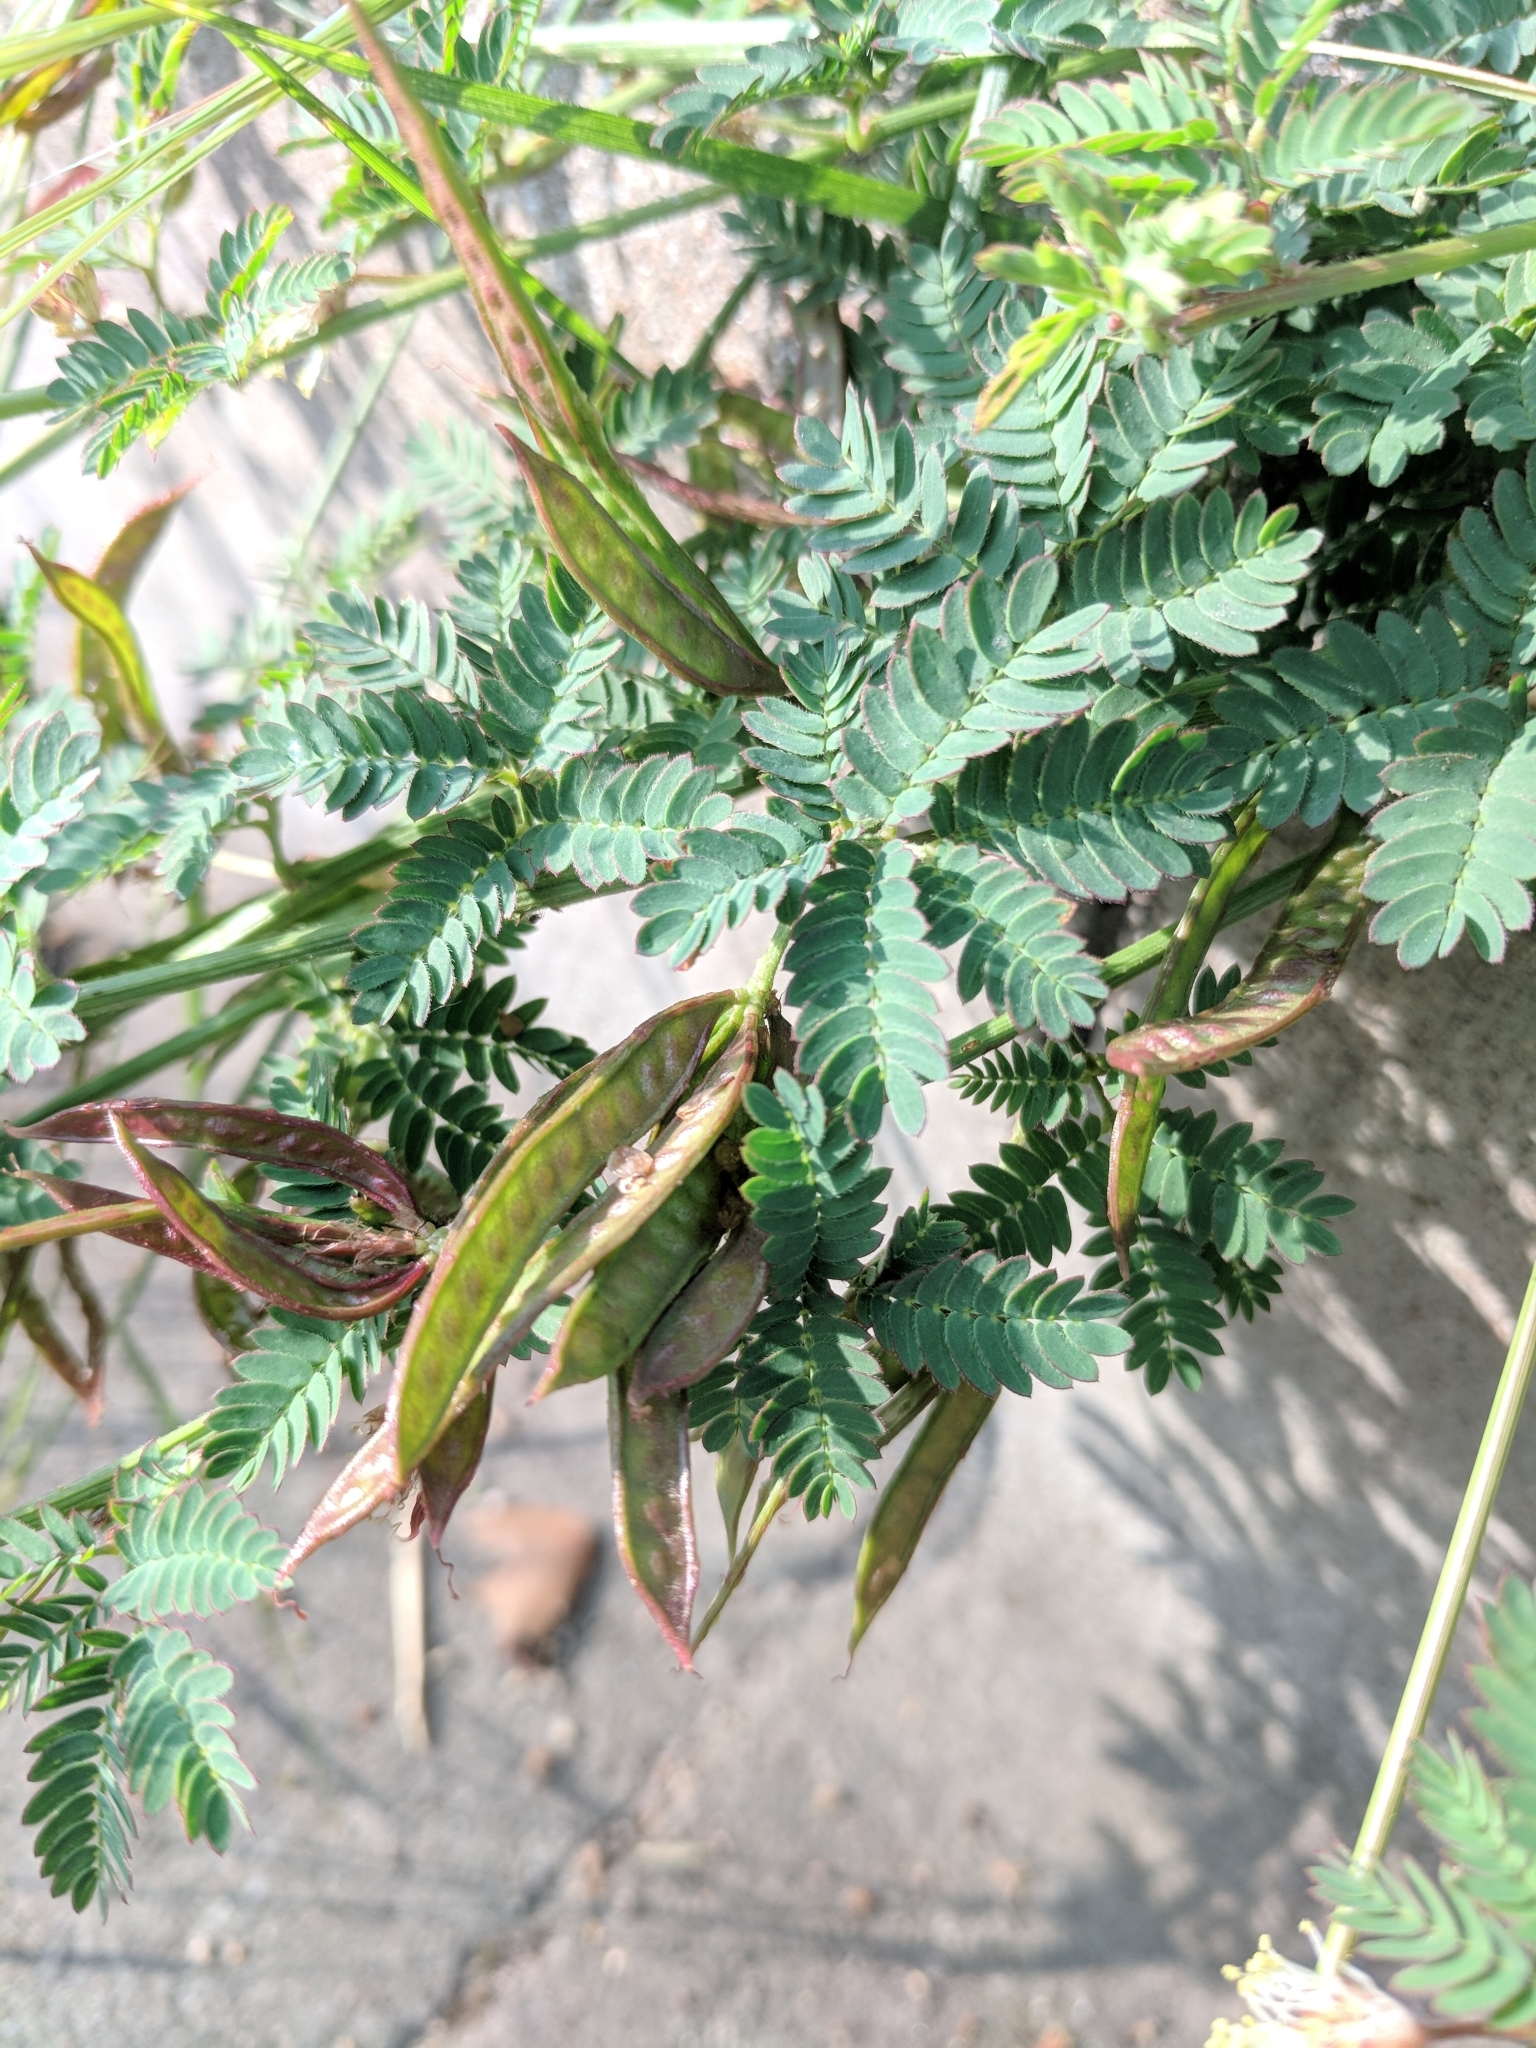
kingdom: Plantae
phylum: Tracheophyta
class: Magnoliopsida
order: Fabales
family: Fabaceae
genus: Desmanthus
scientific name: Desmanthus acuminatus
